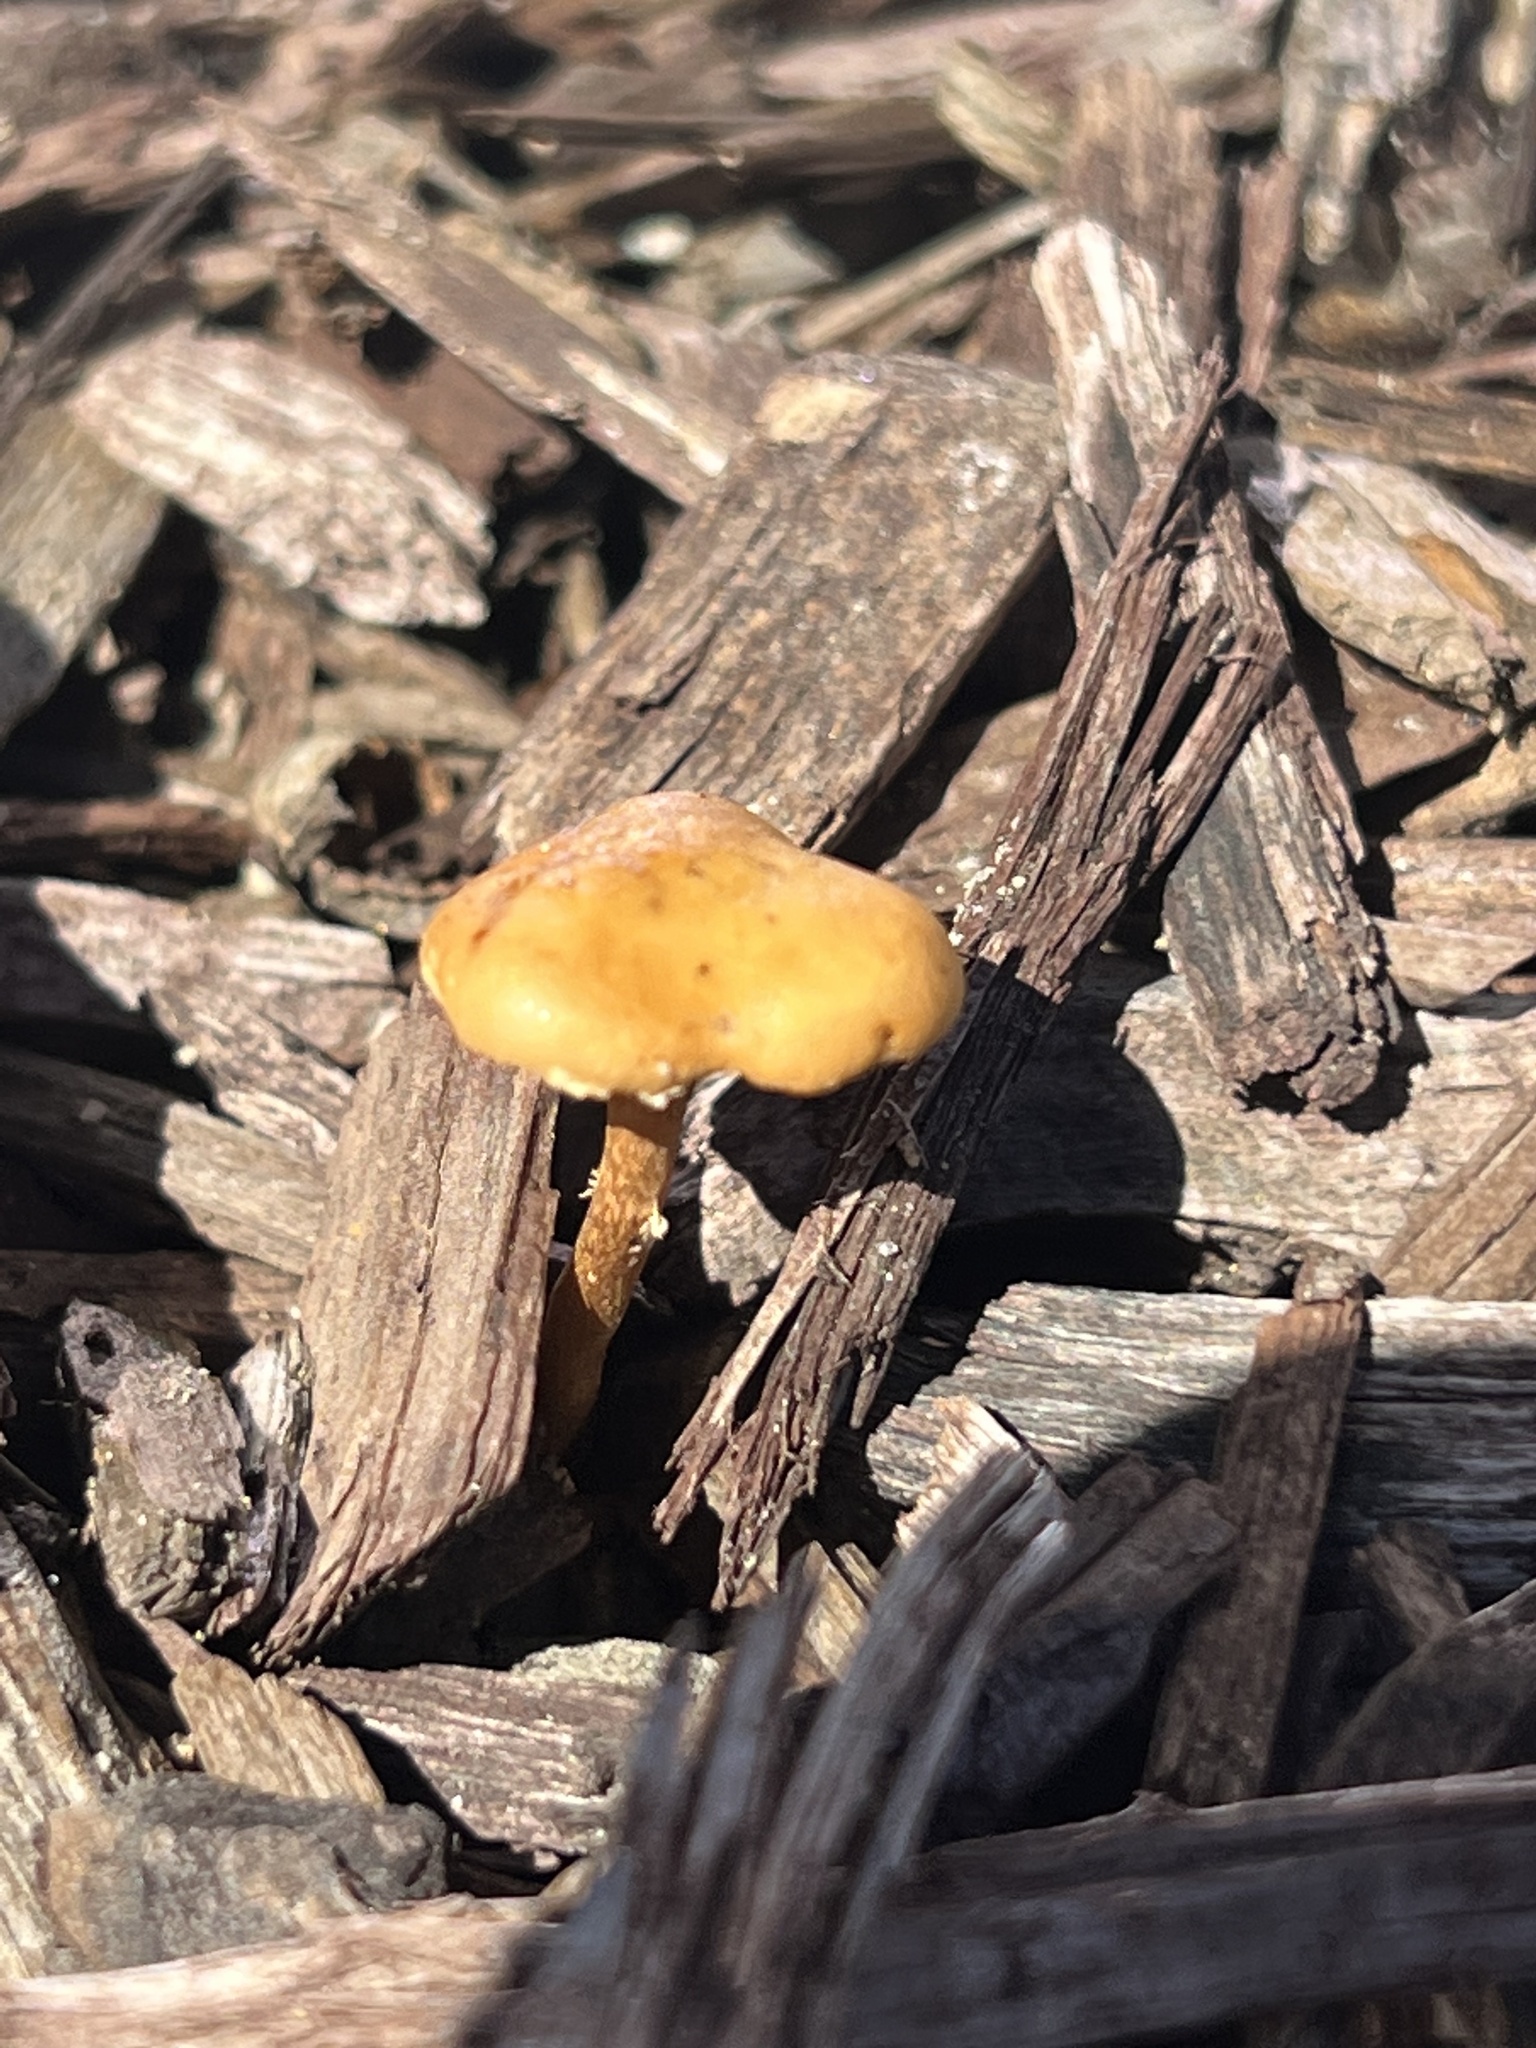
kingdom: Fungi
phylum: Basidiomycota
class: Agaricomycetes
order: Agaricales
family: Strophariaceae
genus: Pholiota
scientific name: Pholiota spumosa
